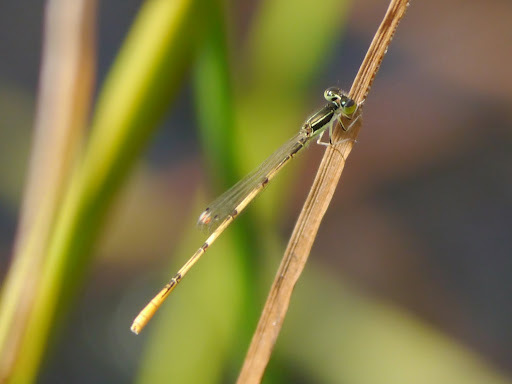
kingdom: Animalia
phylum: Arthropoda
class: Insecta
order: Odonata
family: Coenagrionidae
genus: Ischnura
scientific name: Ischnura hastata
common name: Citrine forktail
